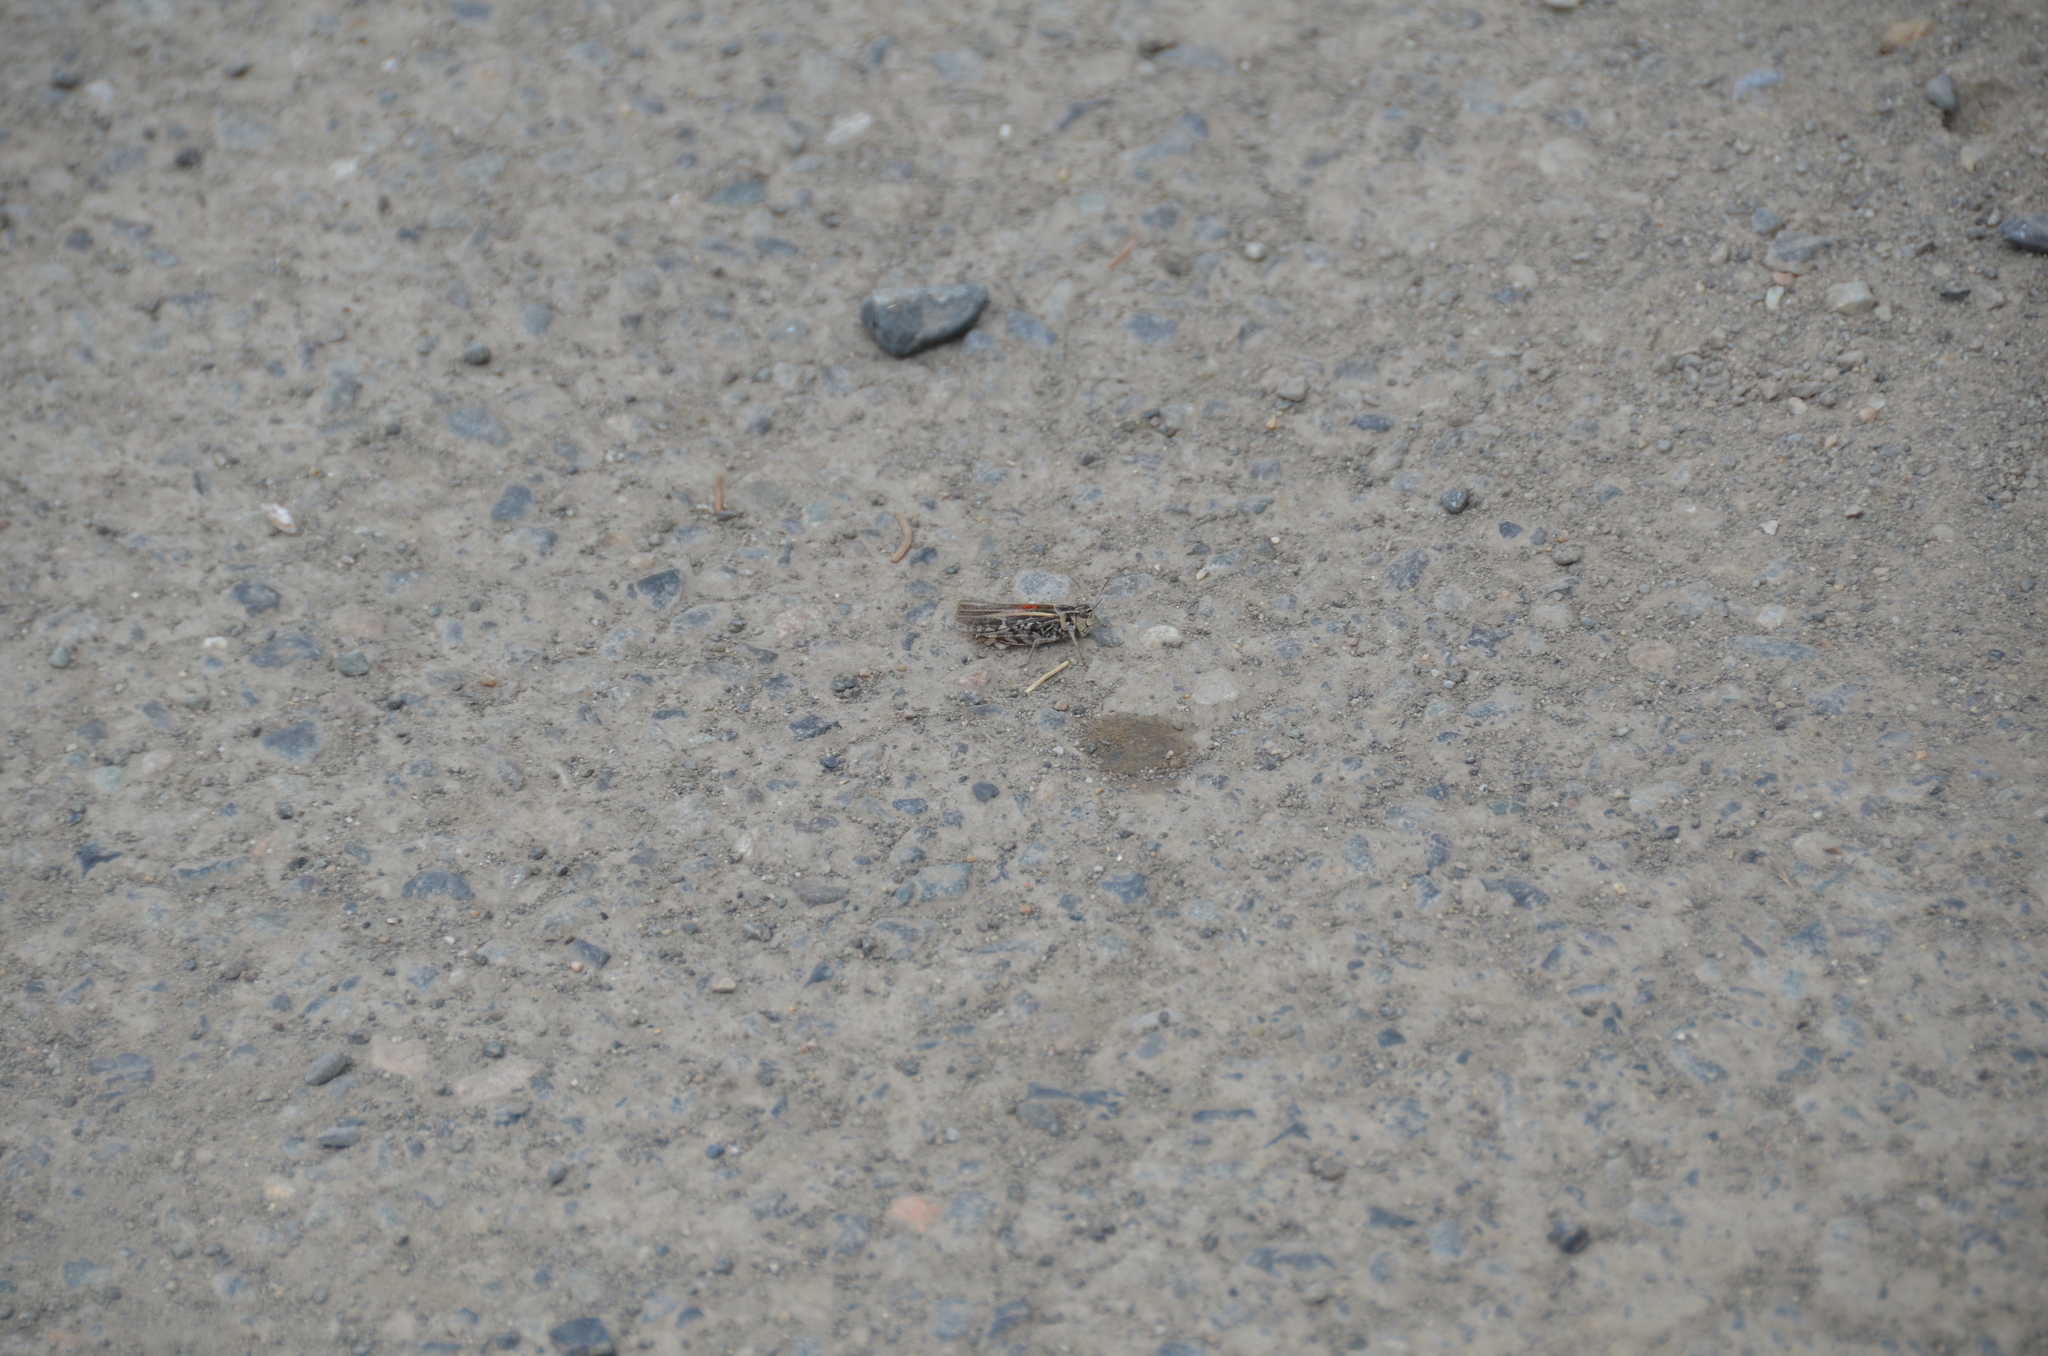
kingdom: Animalia
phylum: Arthropoda
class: Insecta
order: Orthoptera
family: Acrididae
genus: Camnula
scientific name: Camnula pellucida
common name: Clear-winged grasshopper
